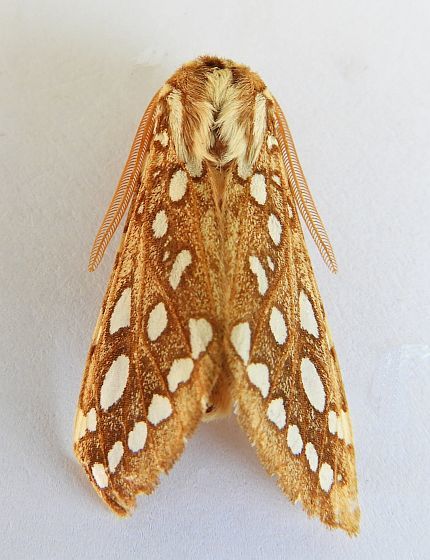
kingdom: Animalia
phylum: Arthropoda
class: Insecta
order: Lepidoptera
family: Erebidae
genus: Lophocampa
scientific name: Lophocampa argentata
